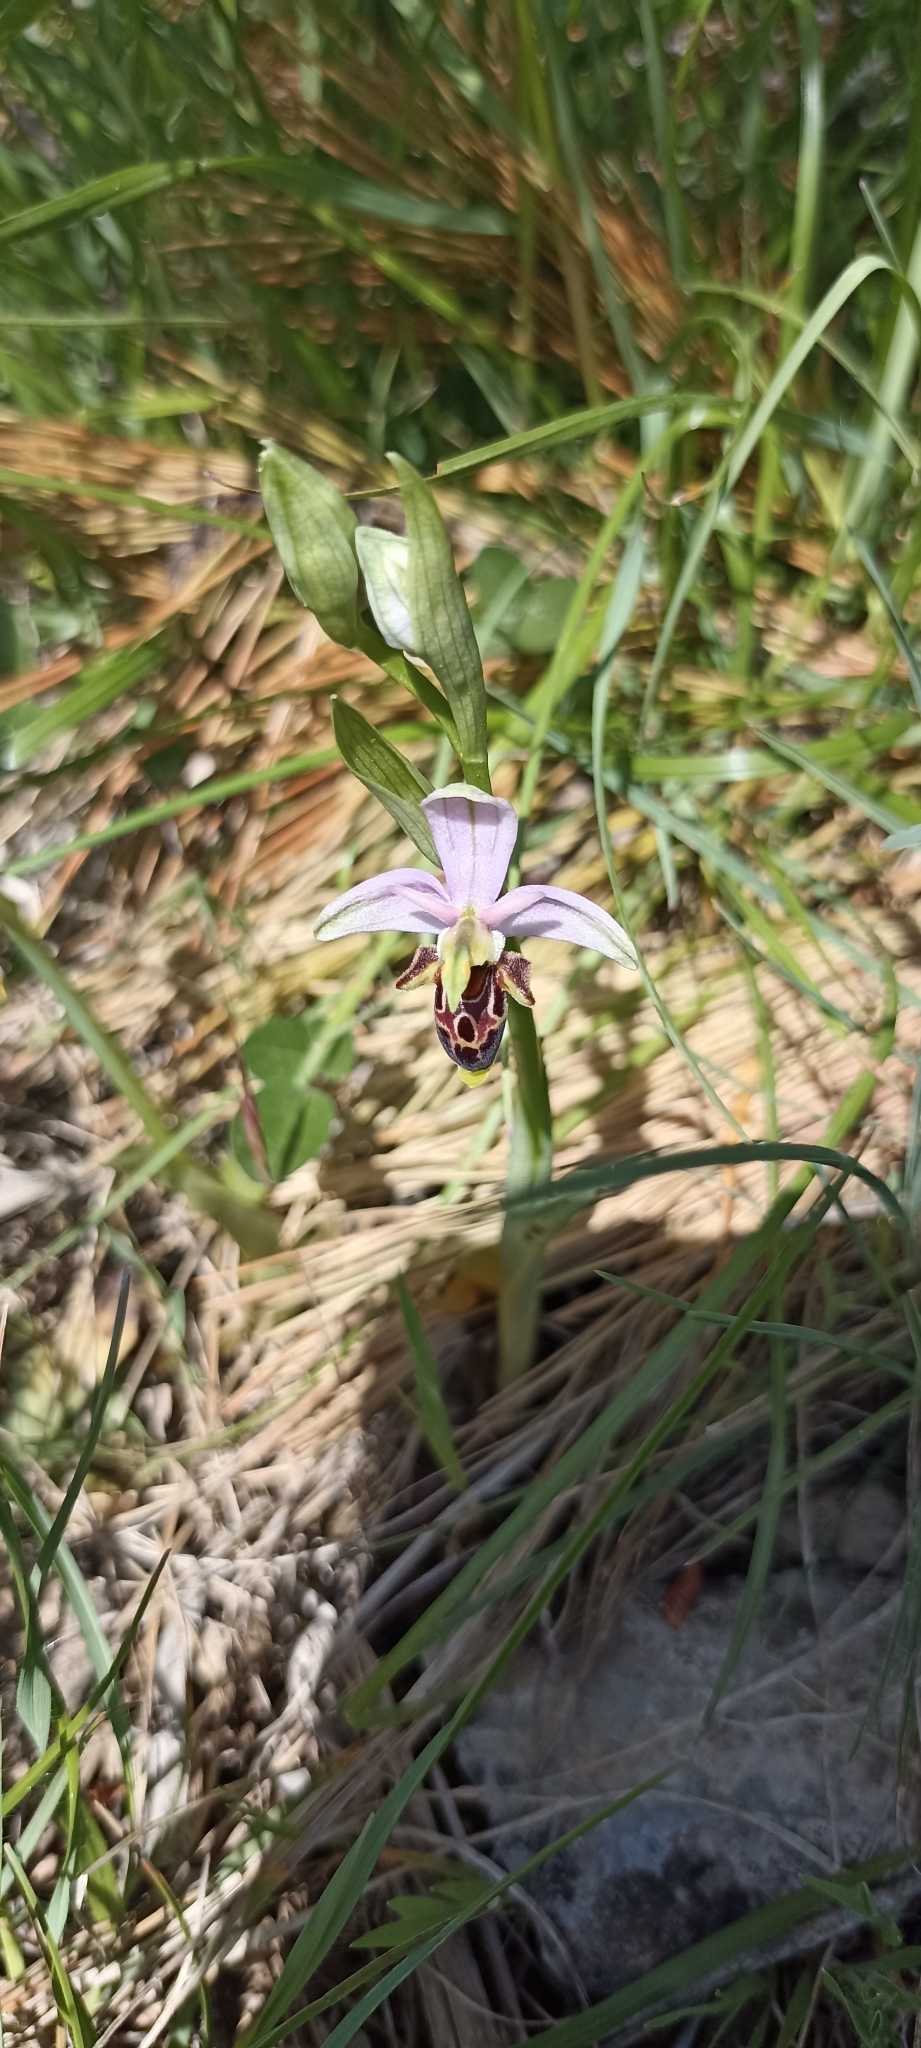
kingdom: Plantae
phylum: Tracheophyta
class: Liliopsida
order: Asparagales
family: Orchidaceae
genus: Ophrys
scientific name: Ophrys scolopax
